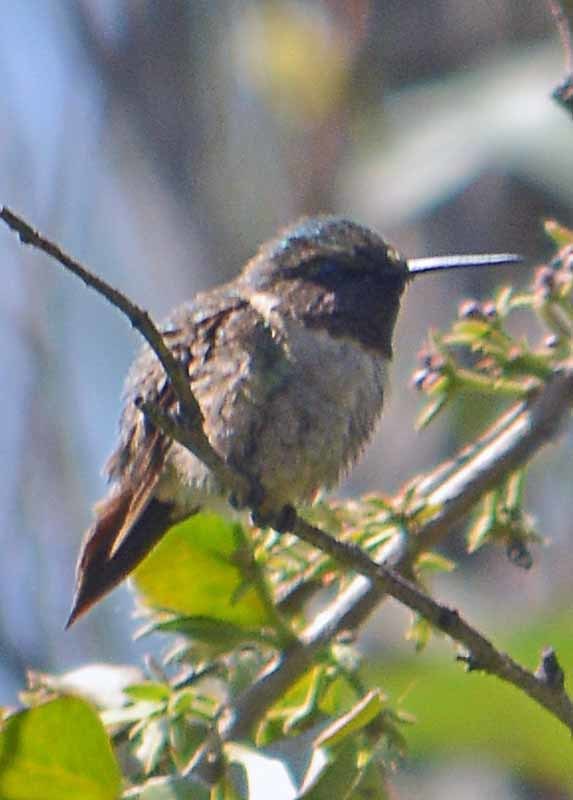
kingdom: Animalia
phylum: Chordata
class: Aves
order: Apodiformes
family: Trochilidae
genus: Archilochus
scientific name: Archilochus colubris
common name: Ruby-throated hummingbird
